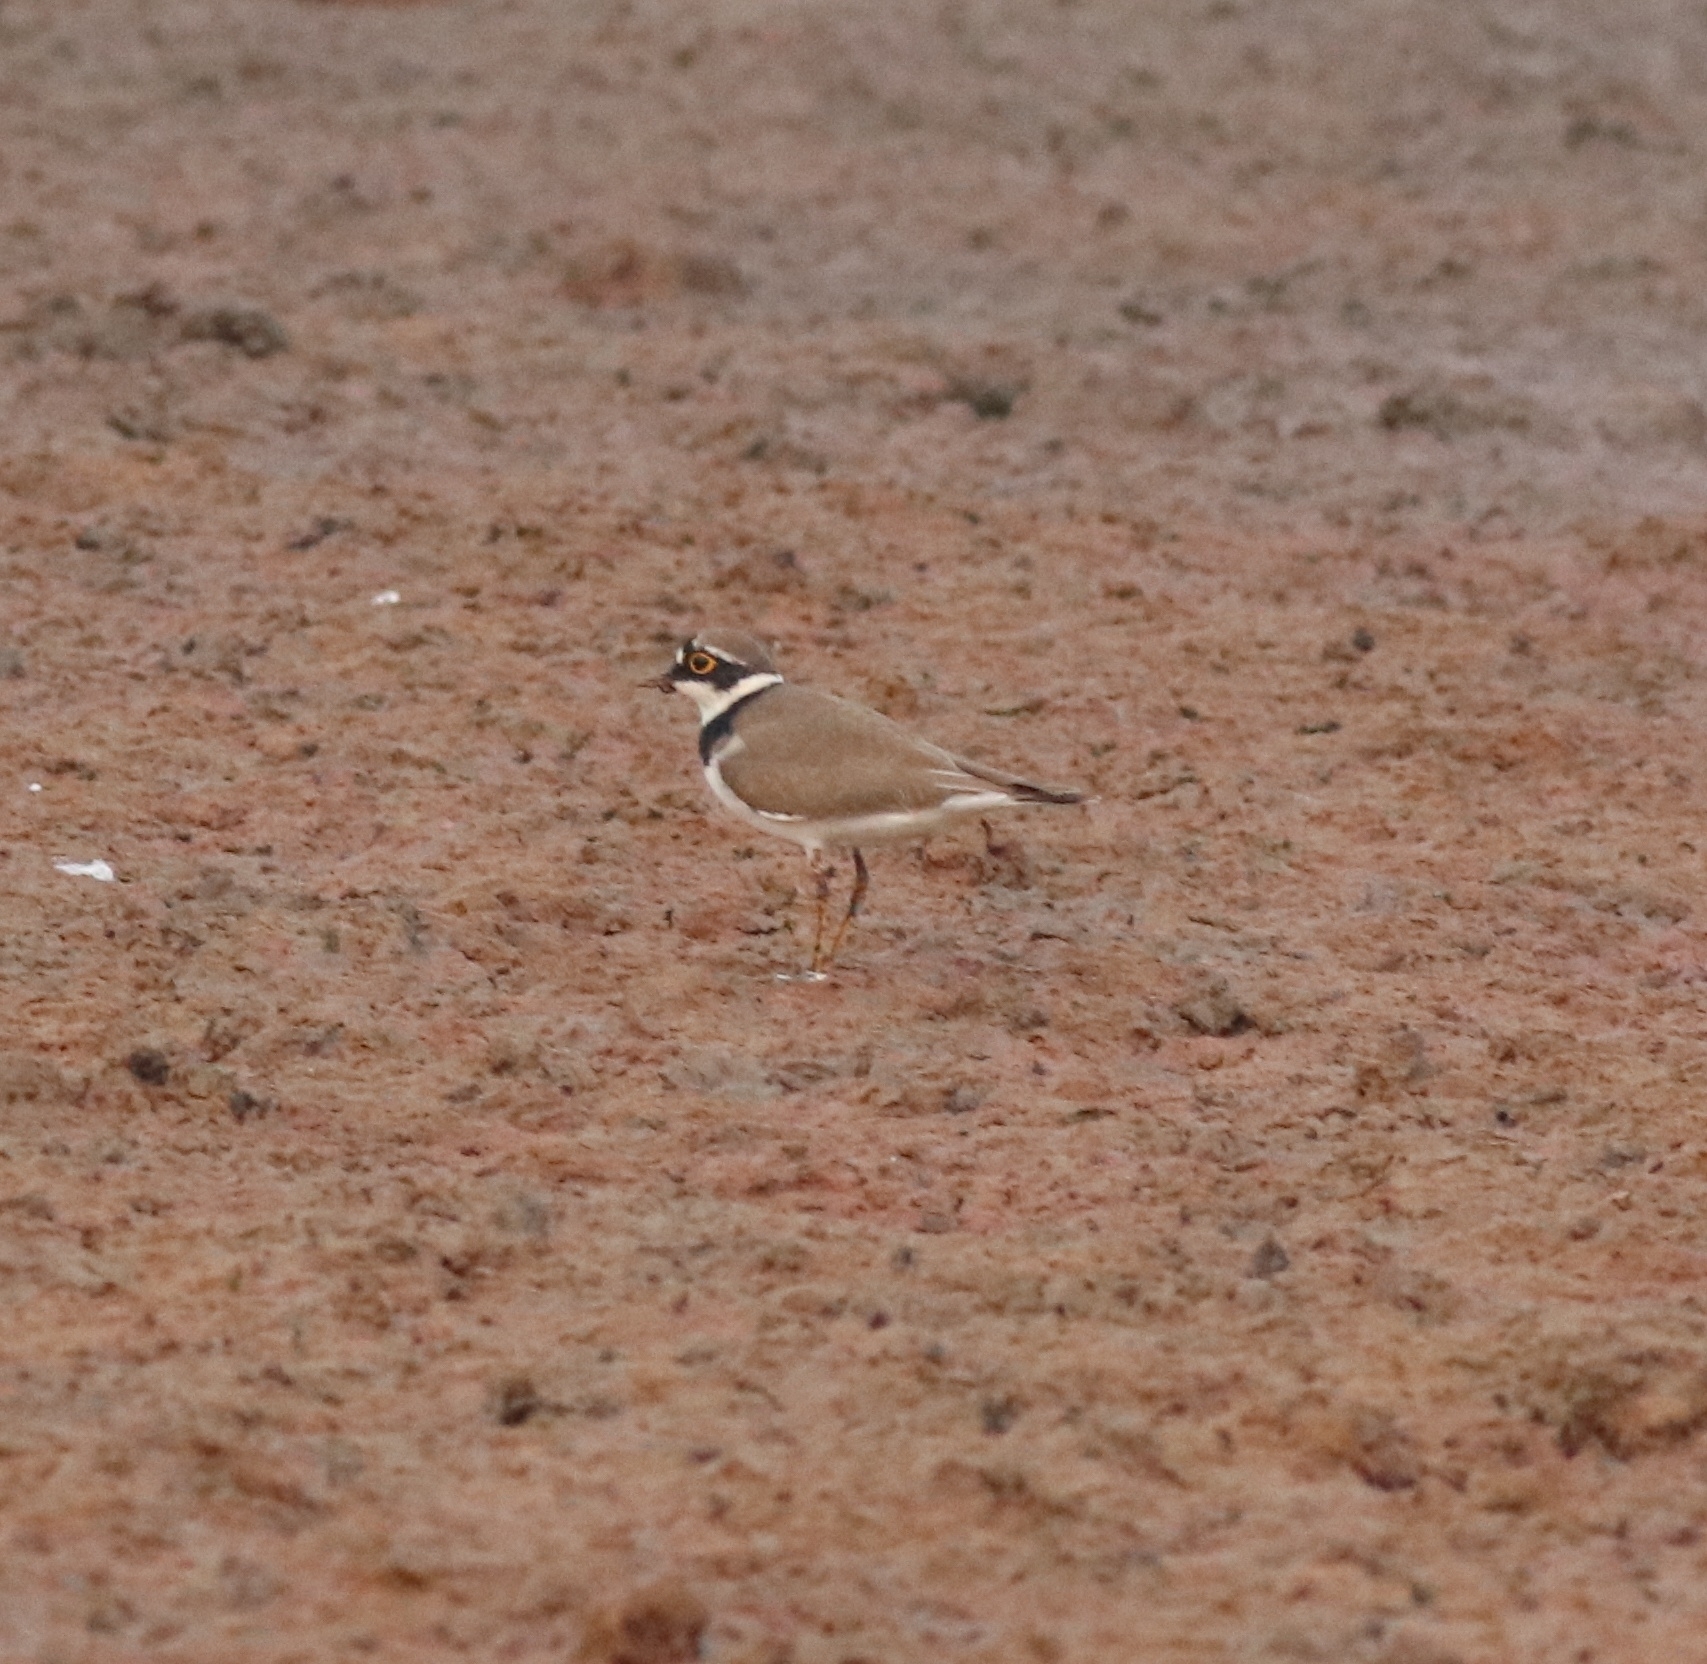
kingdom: Animalia
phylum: Chordata
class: Aves
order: Charadriiformes
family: Charadriidae
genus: Charadrius
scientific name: Charadrius dubius
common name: Little ringed plover
